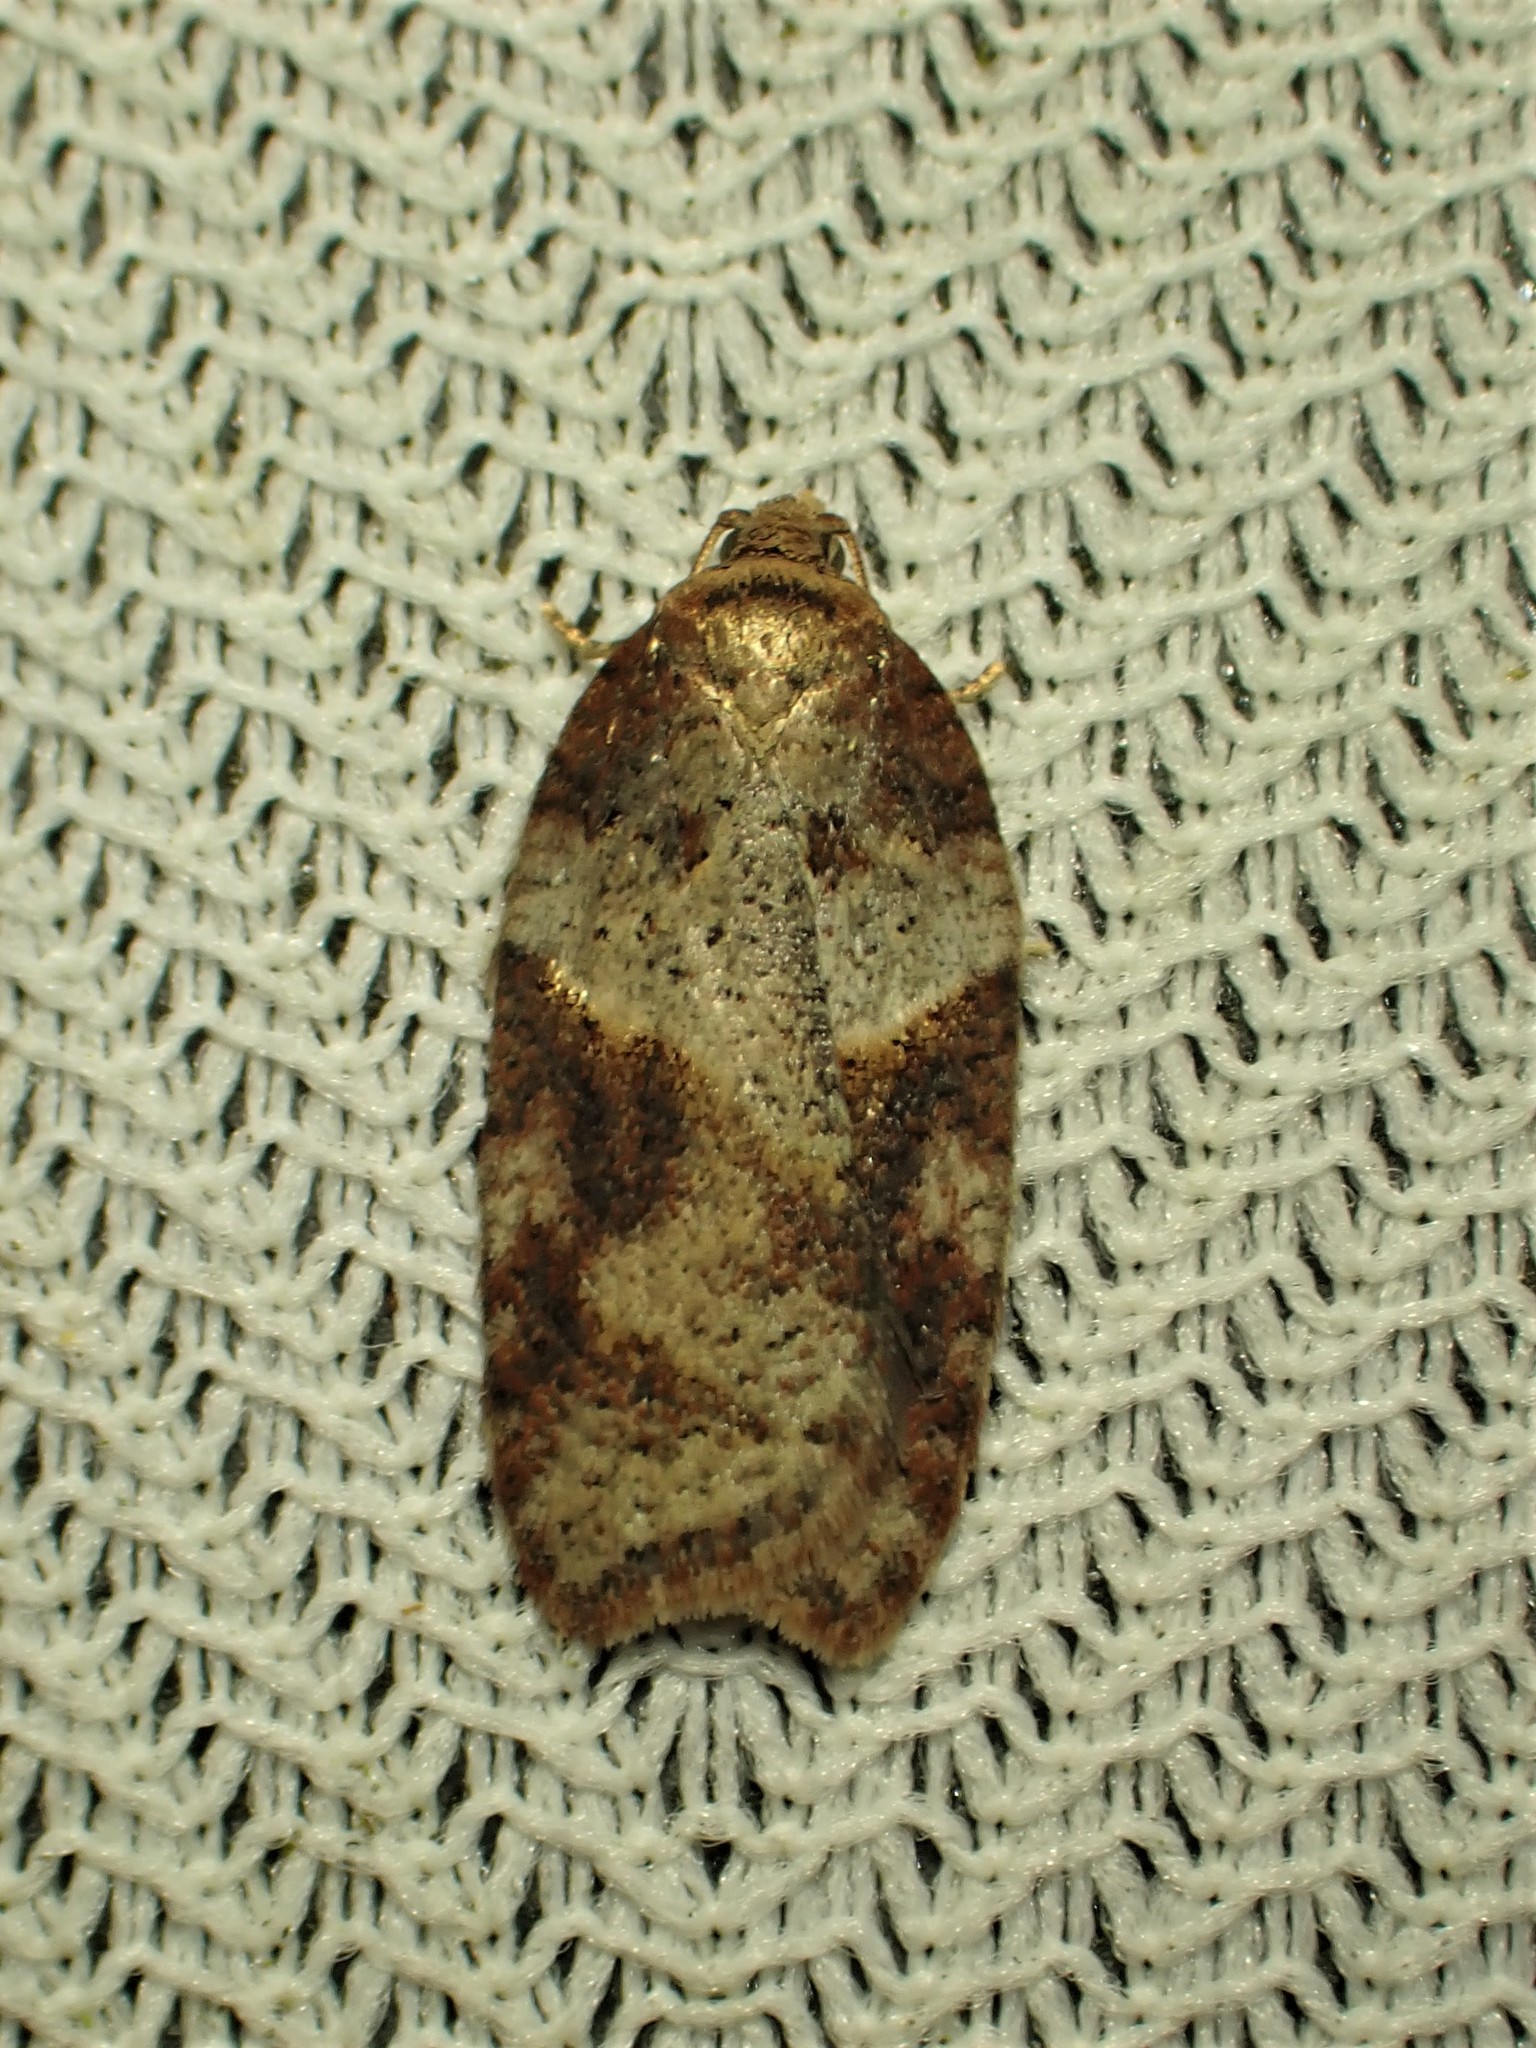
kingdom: Animalia
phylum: Arthropoda
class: Insecta
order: Lepidoptera
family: Tortricidae
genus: Acleris
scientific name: Acleris maccana
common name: Marbled button
